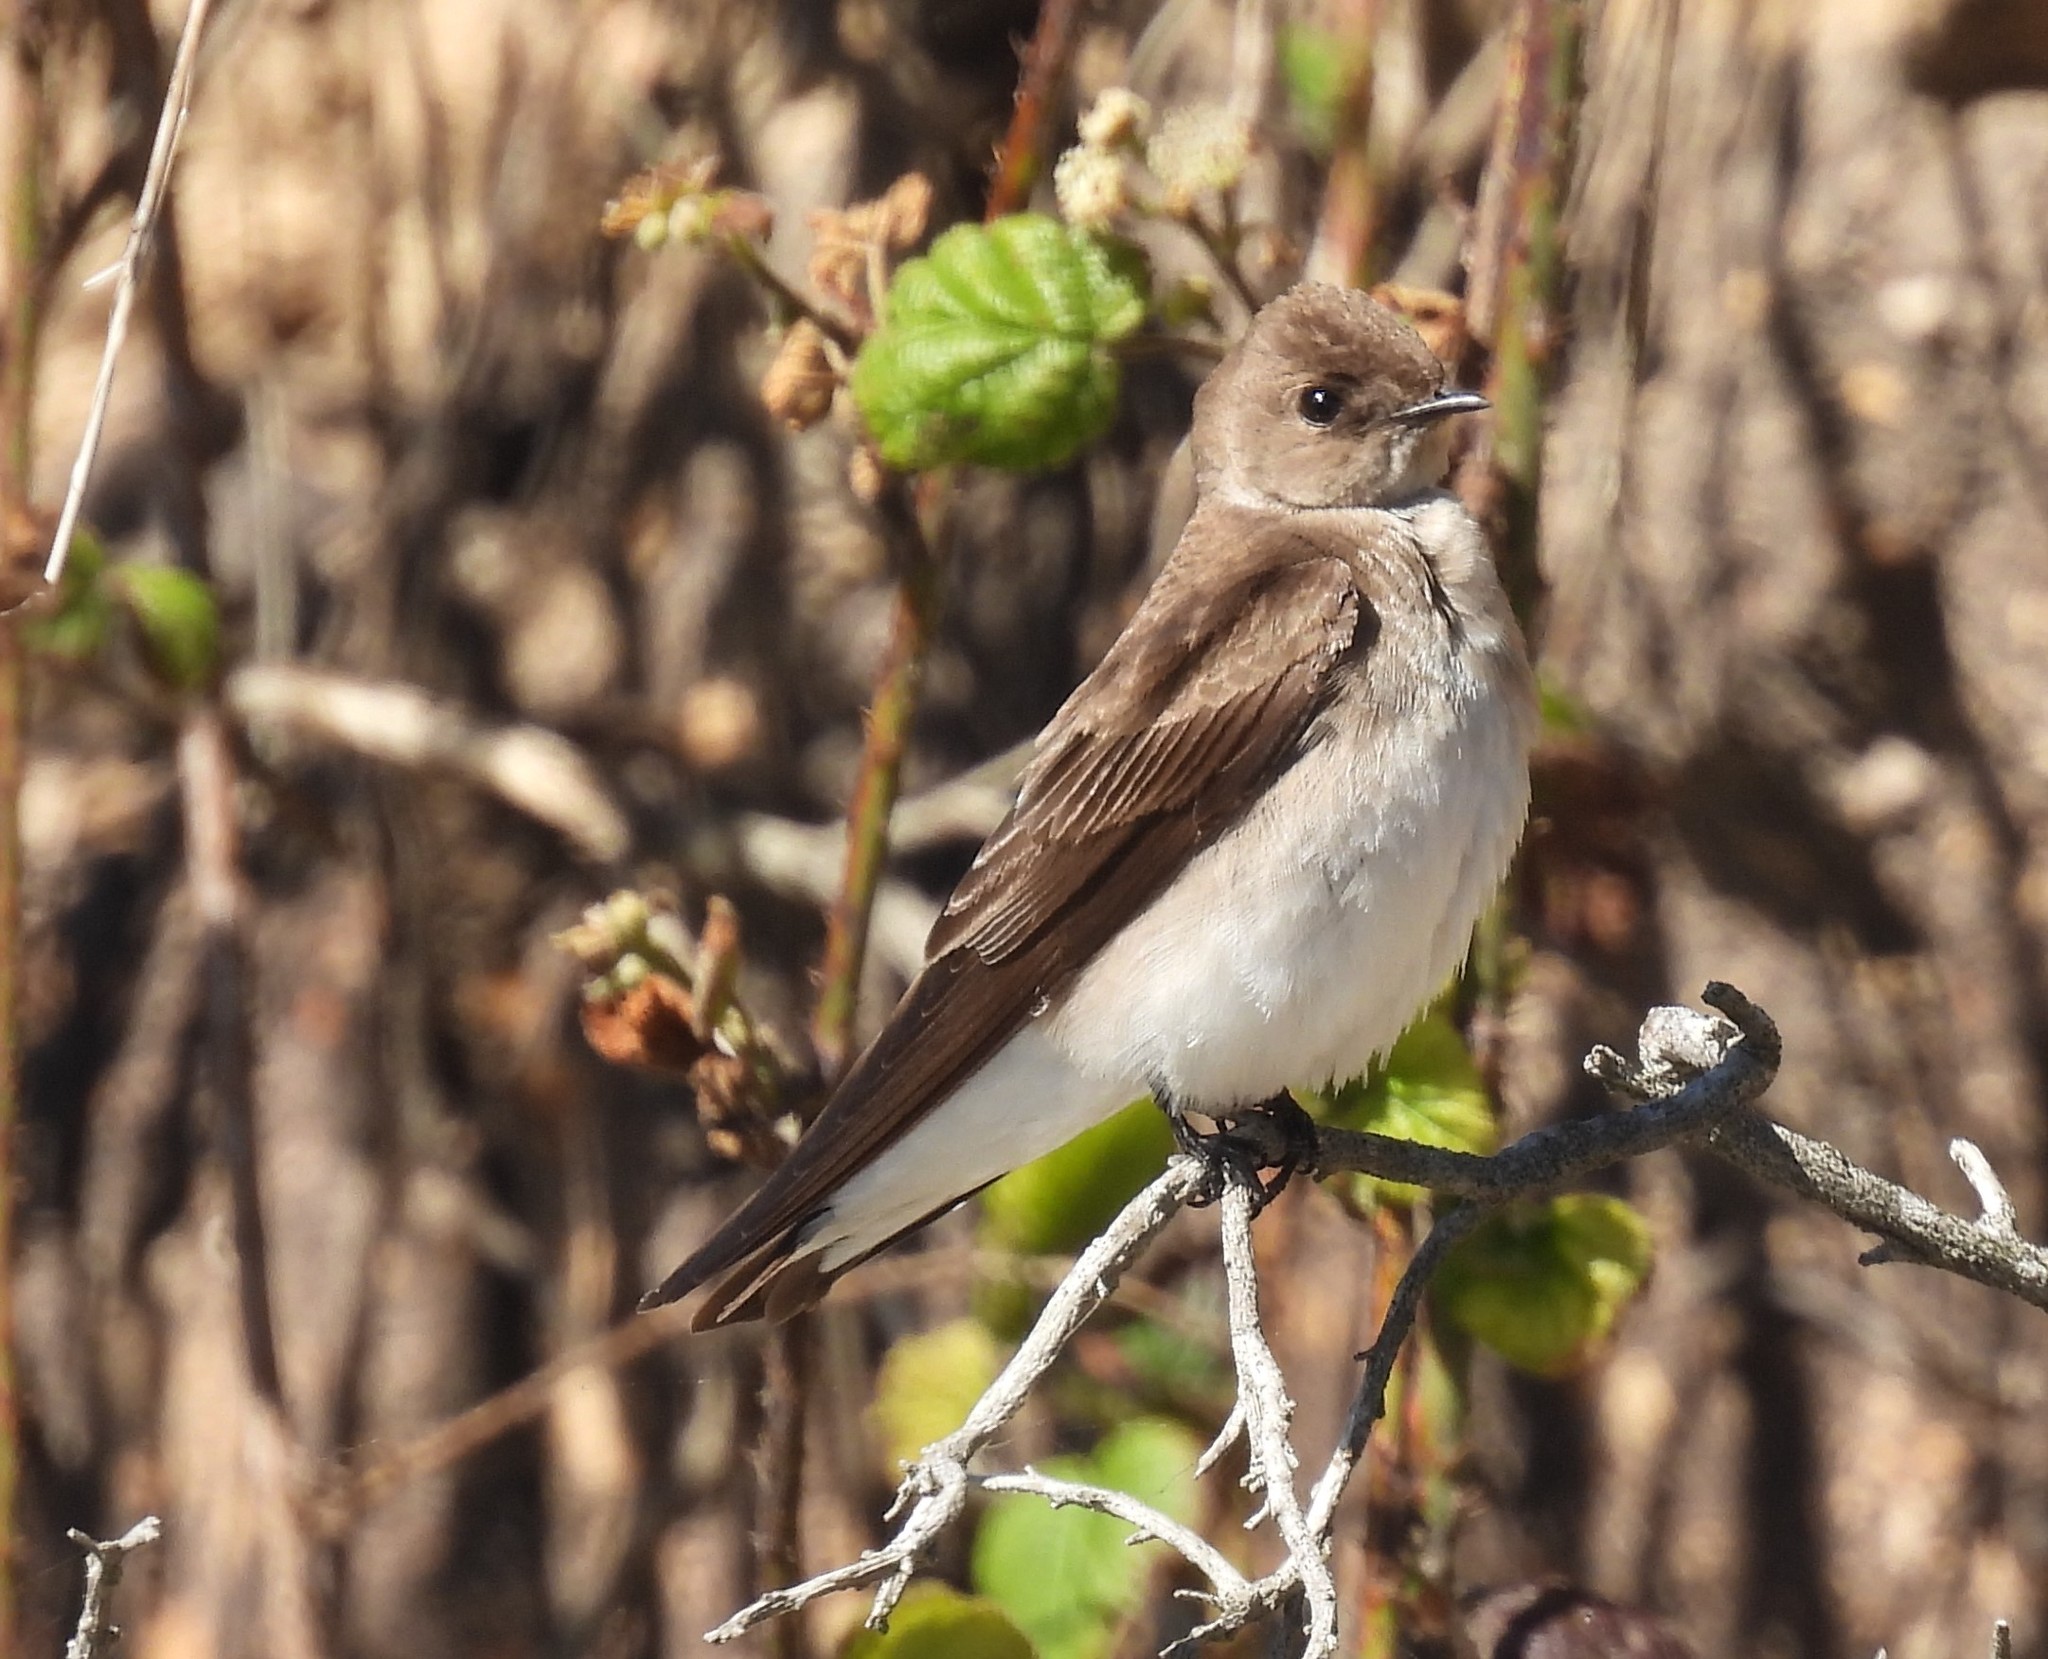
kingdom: Animalia
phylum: Chordata
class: Aves
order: Passeriformes
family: Hirundinidae
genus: Stelgidopteryx
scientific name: Stelgidopteryx serripennis
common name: Northern rough-winged swallow
